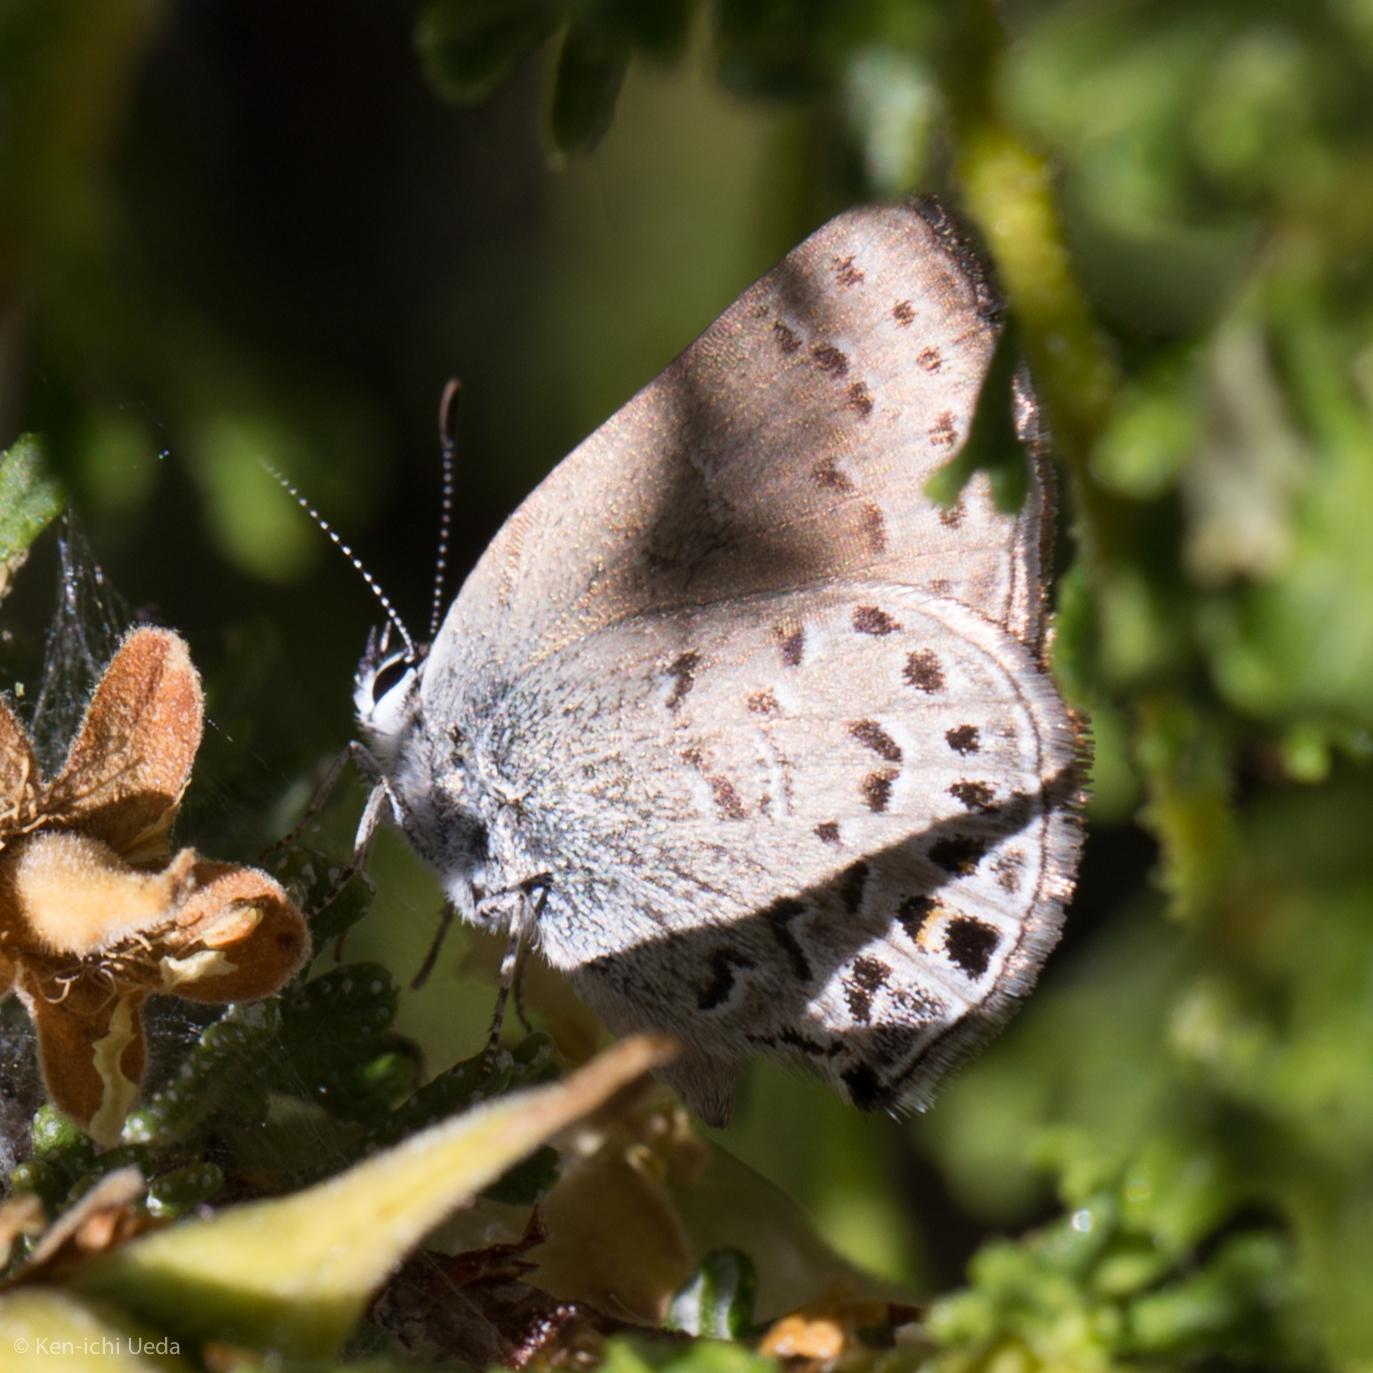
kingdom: Animalia
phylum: Arthropoda
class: Insecta
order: Lepidoptera
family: Lycaenidae
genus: Satyrium
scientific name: Satyrium behrii
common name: Behr's hairstreak
